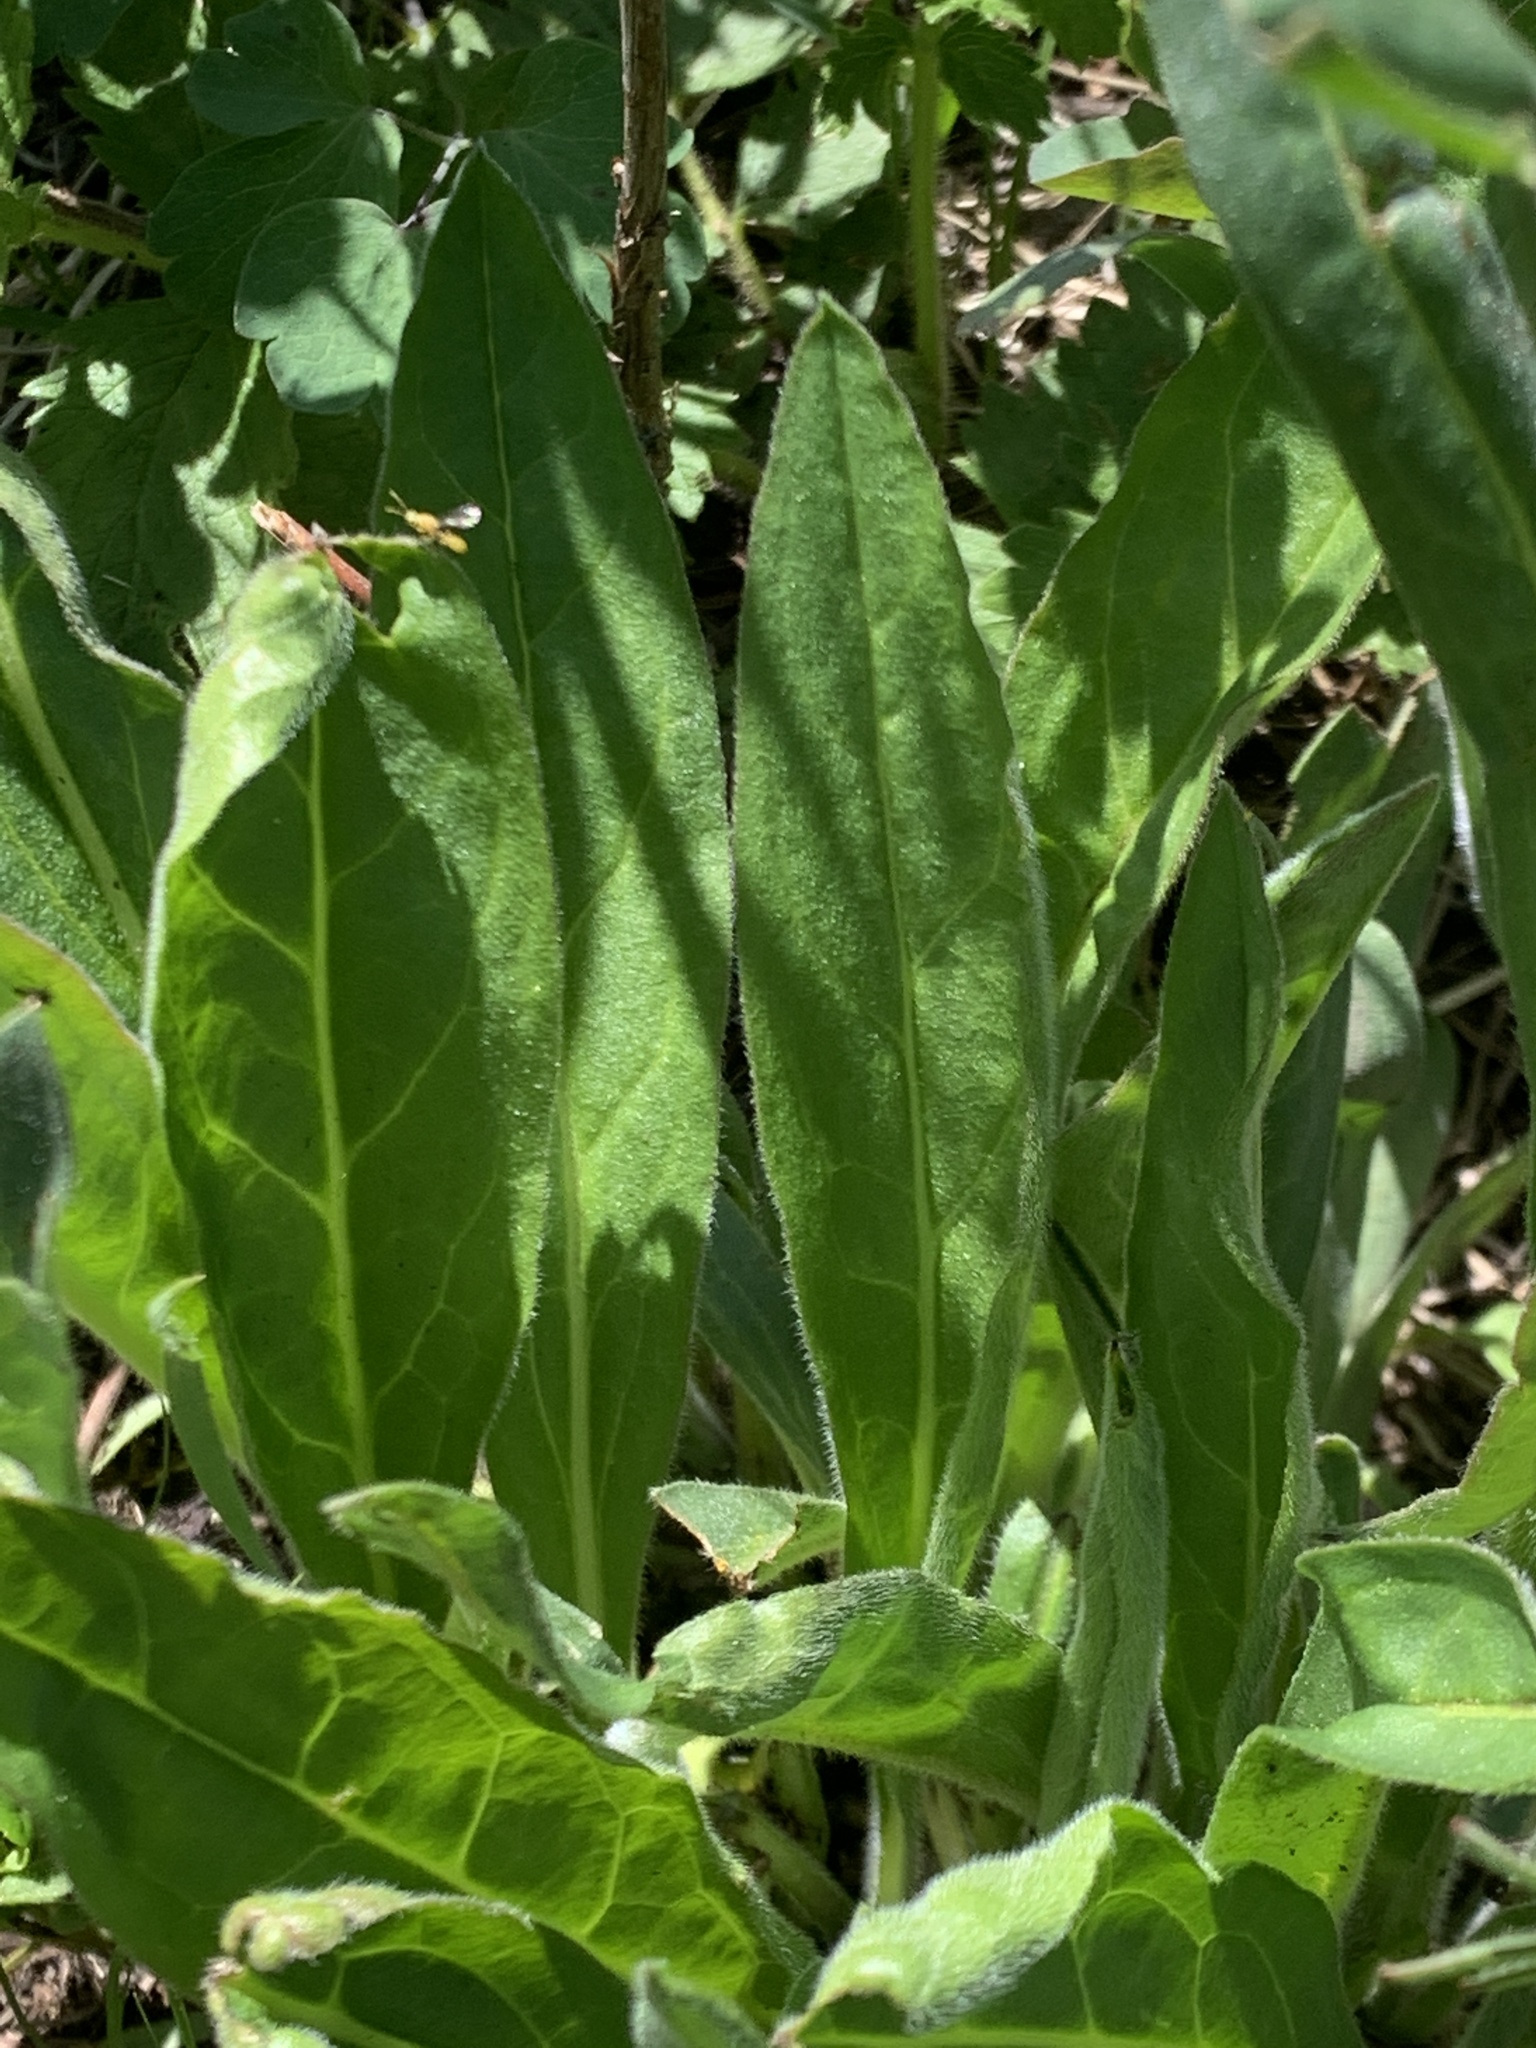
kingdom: Plantae
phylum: Tracheophyta
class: Magnoliopsida
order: Boraginales
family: Boraginaceae
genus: Hackelia
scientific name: Hackelia floribunda
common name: Large-flowered stickseed
